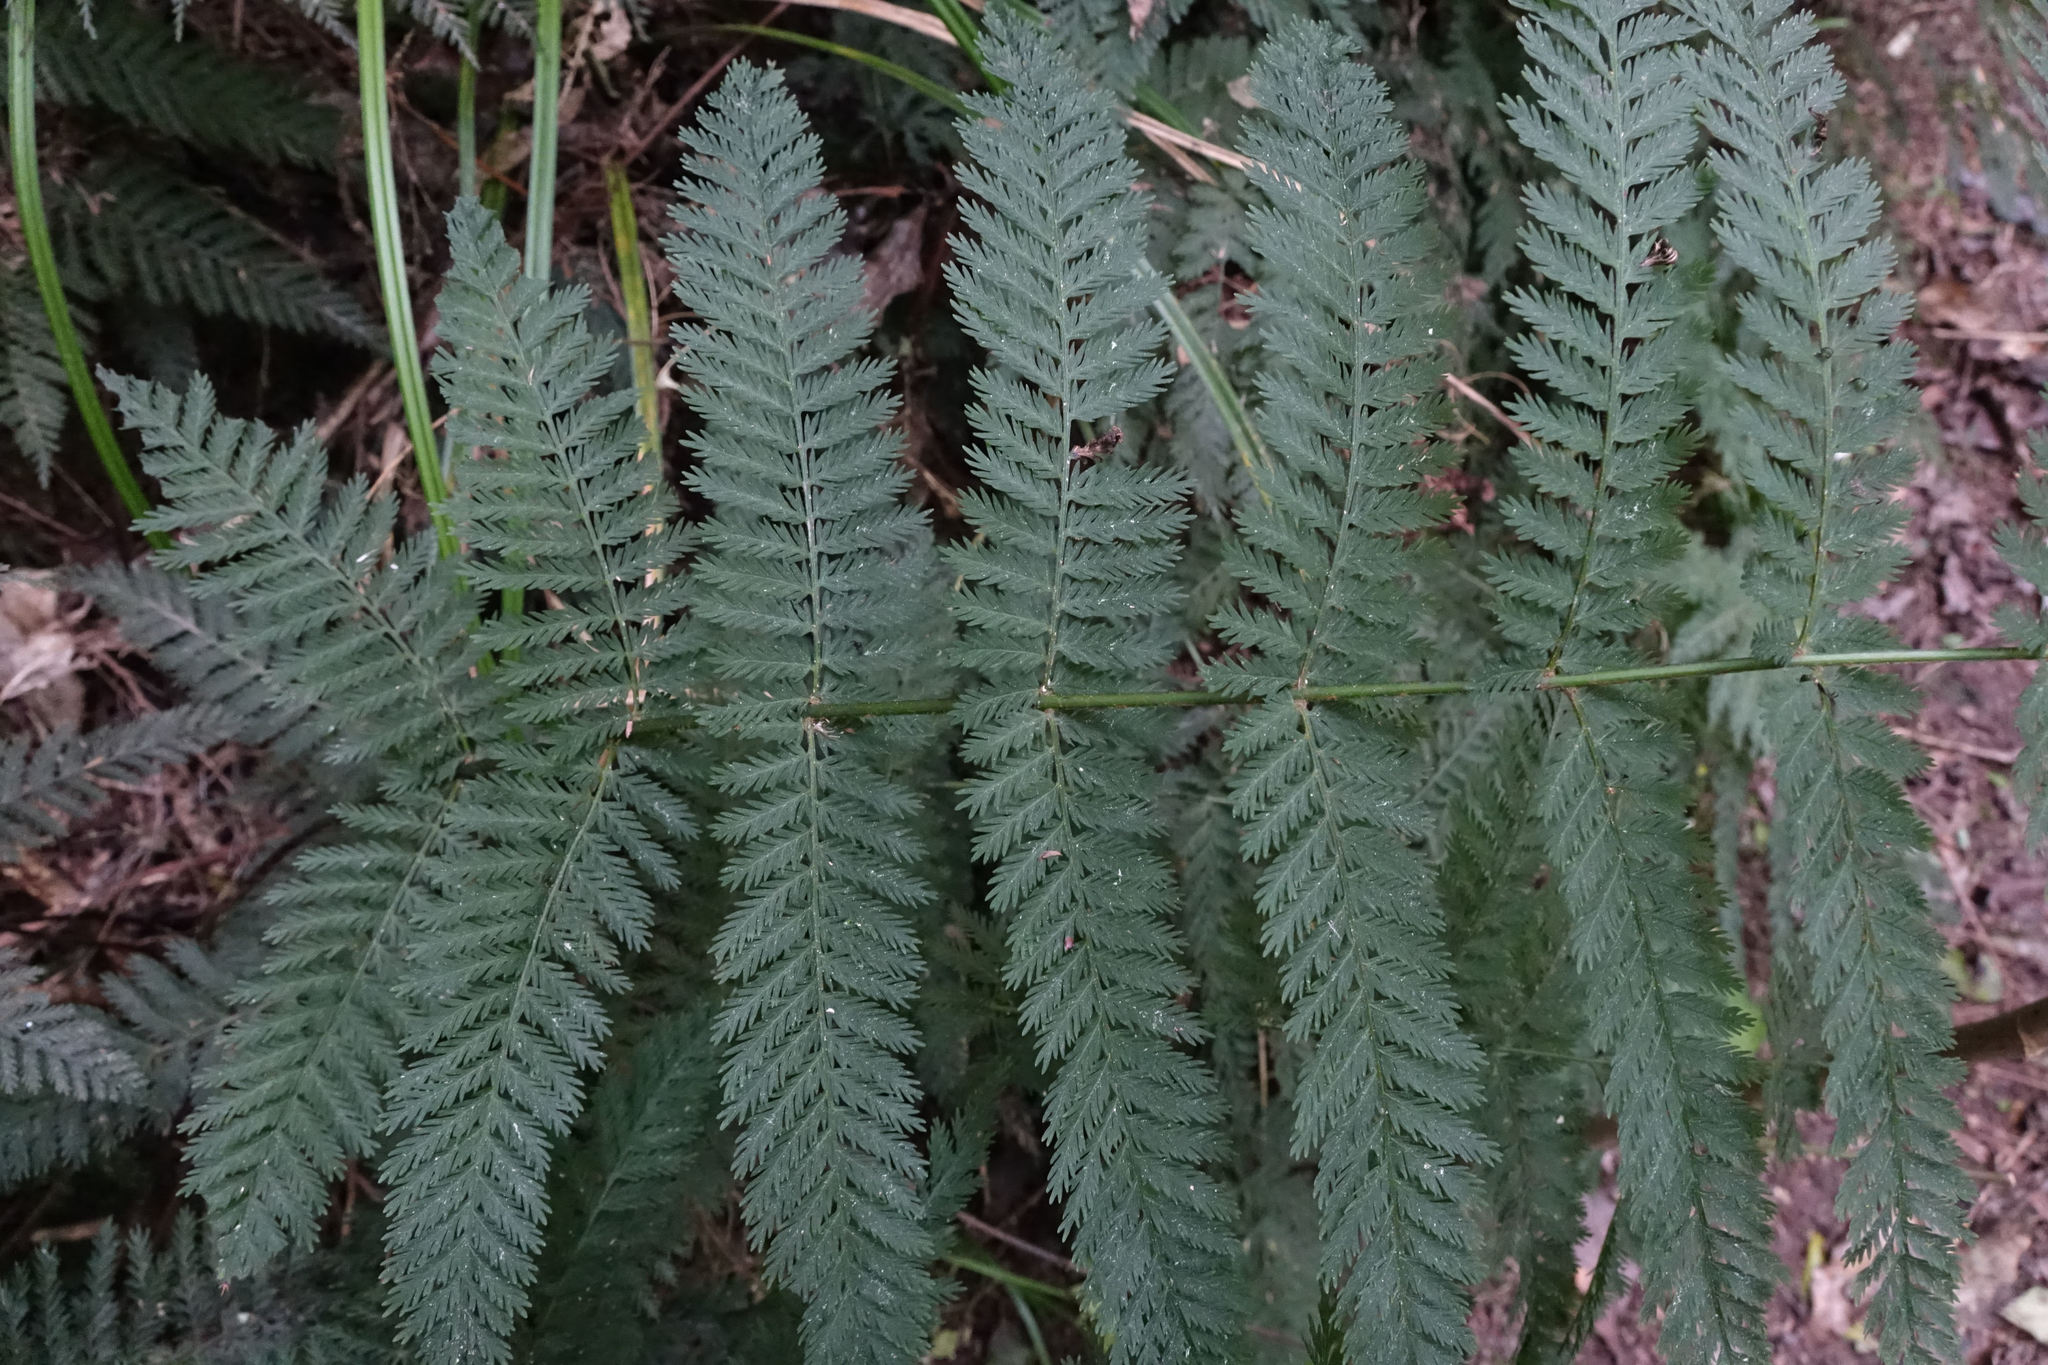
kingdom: Plantae
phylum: Tracheophyta
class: Polypodiopsida
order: Osmundales
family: Osmundaceae
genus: Leptopteris
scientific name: Leptopteris hymenophylloides
